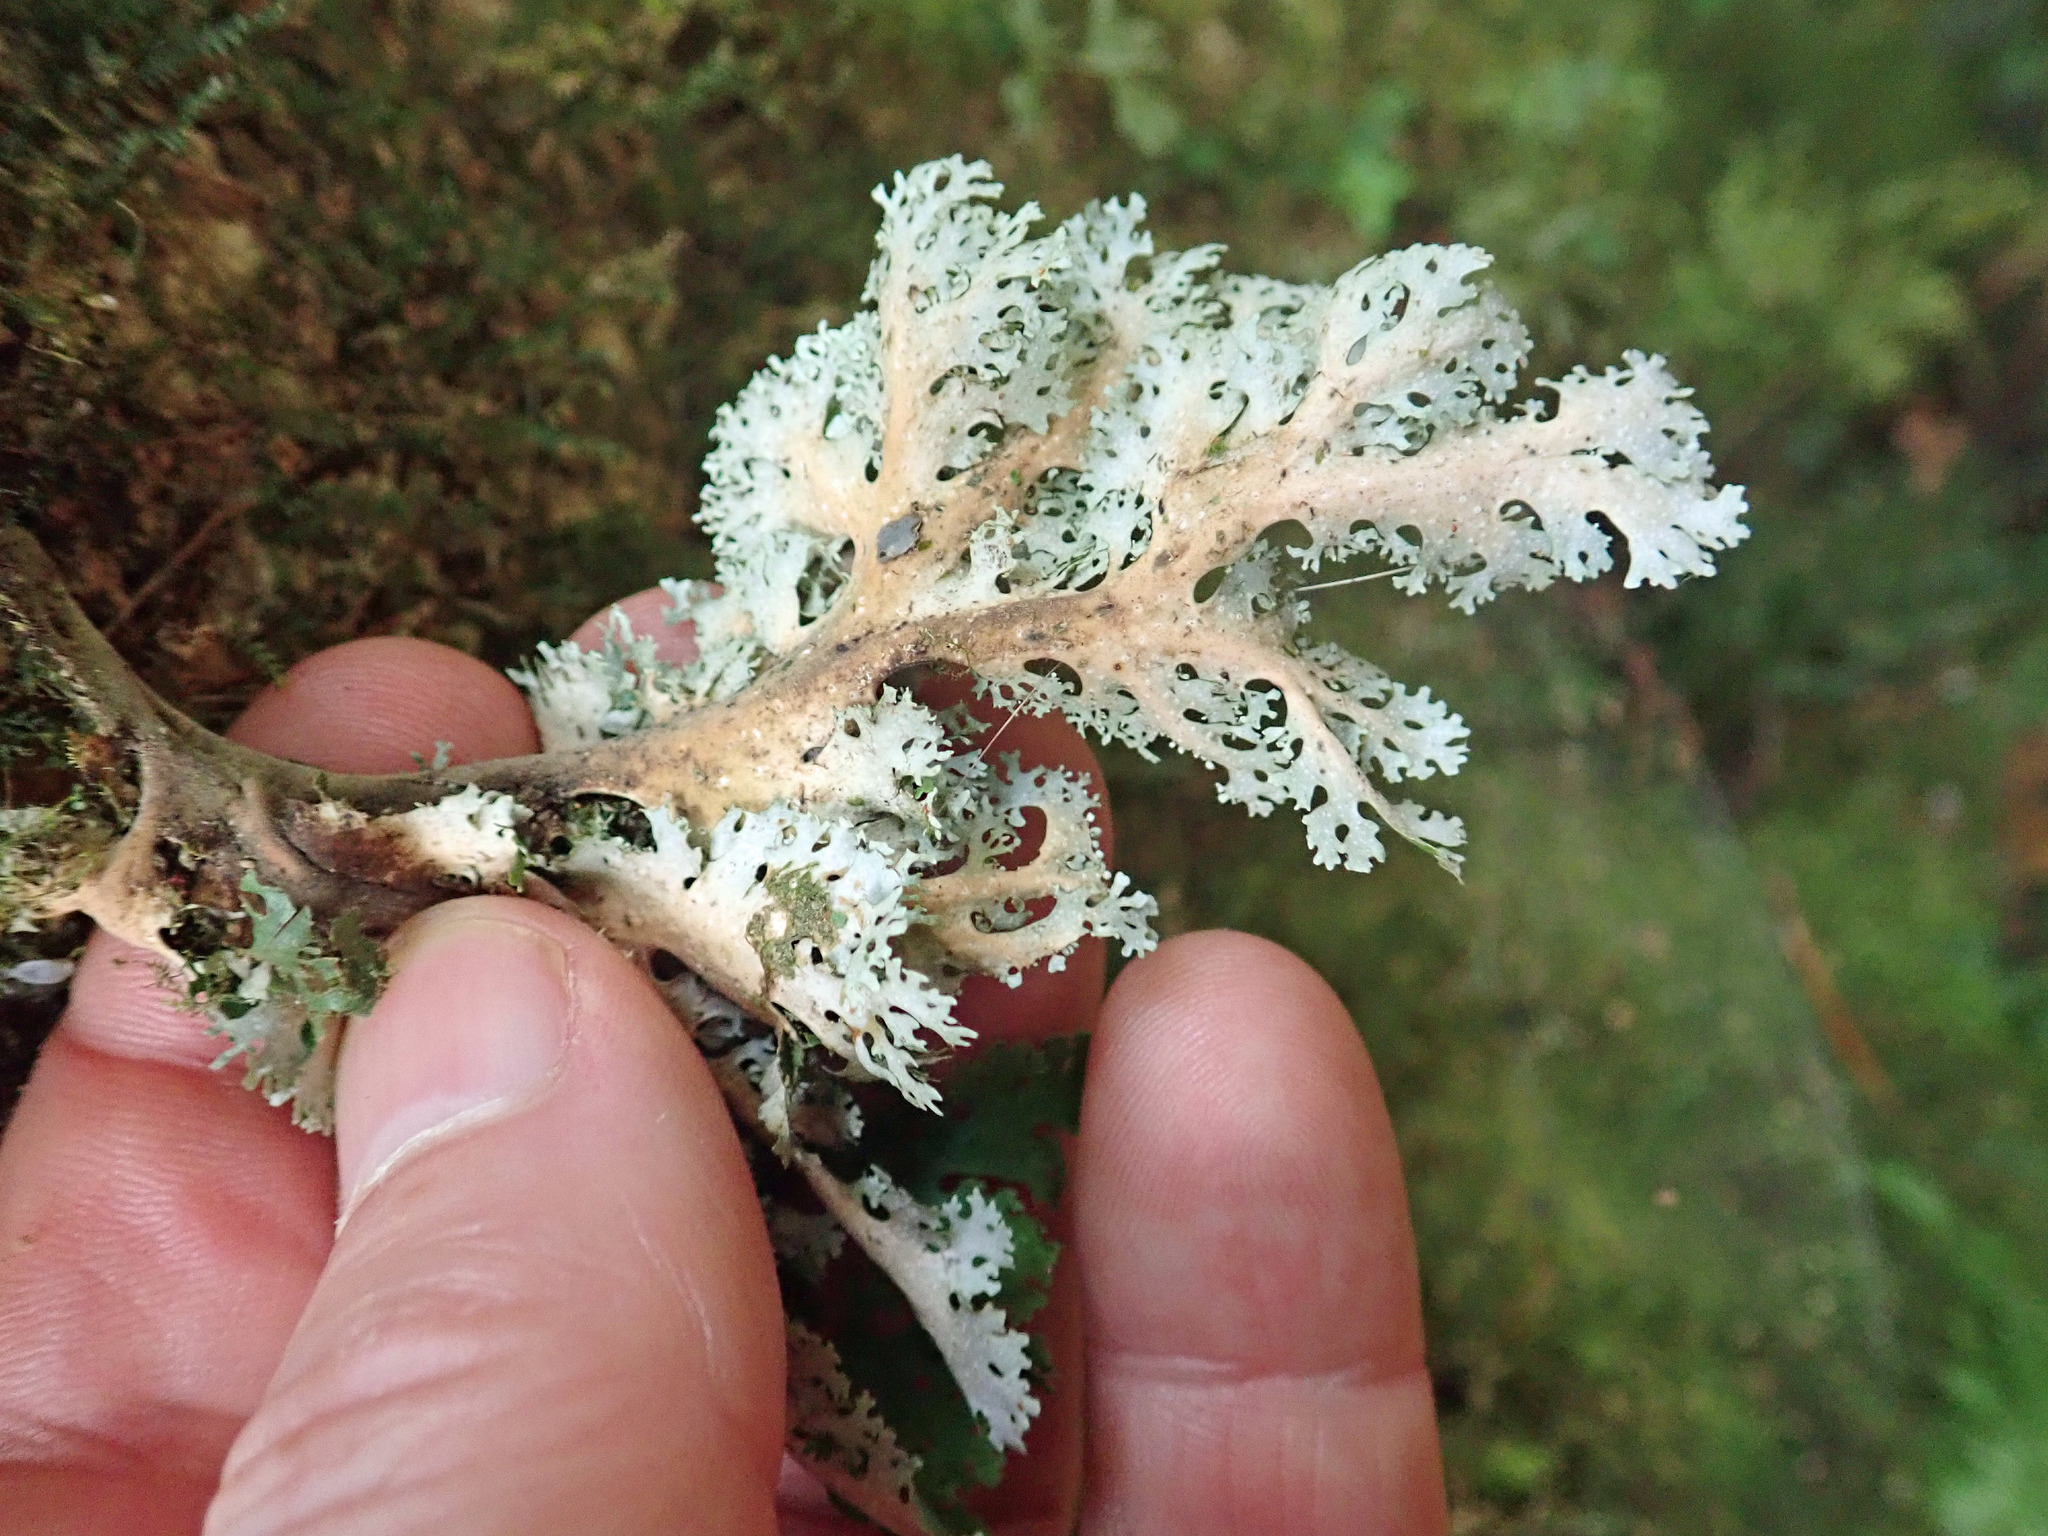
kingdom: Fungi
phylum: Ascomycota
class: Lecanoromycetes
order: Peltigerales
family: Lobariaceae
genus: Sticta
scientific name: Sticta filix
